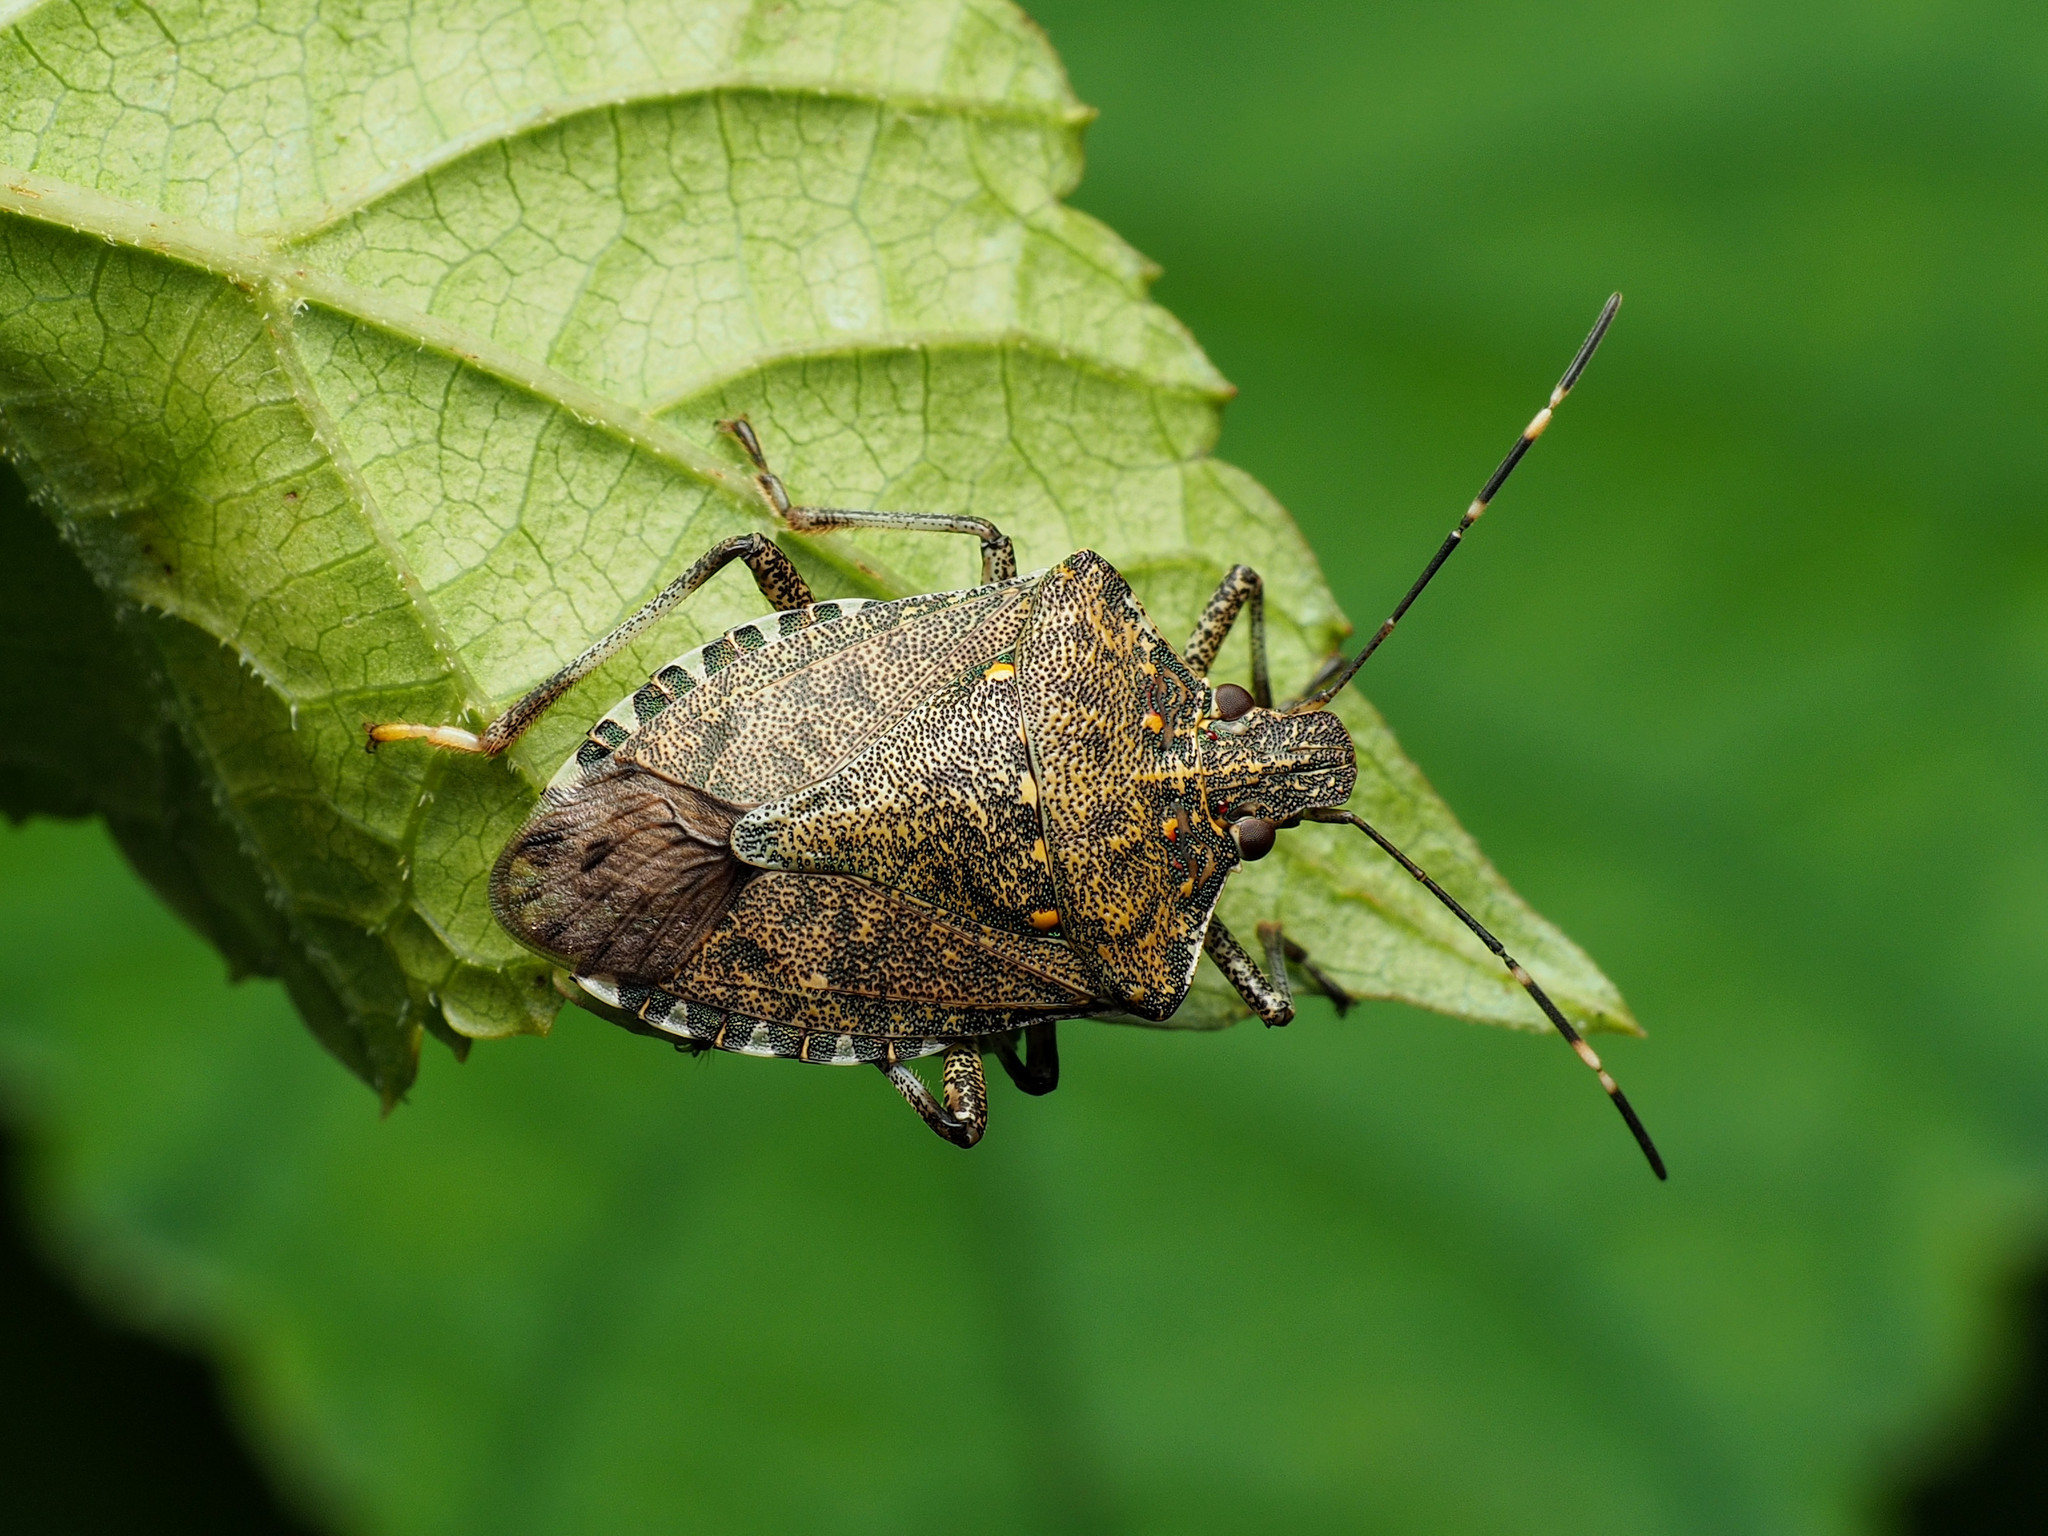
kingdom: Animalia
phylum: Arthropoda
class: Insecta
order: Hemiptera
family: Pentatomidae
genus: Halyomorpha
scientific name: Halyomorpha halys
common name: Brown marmorated stink bug
